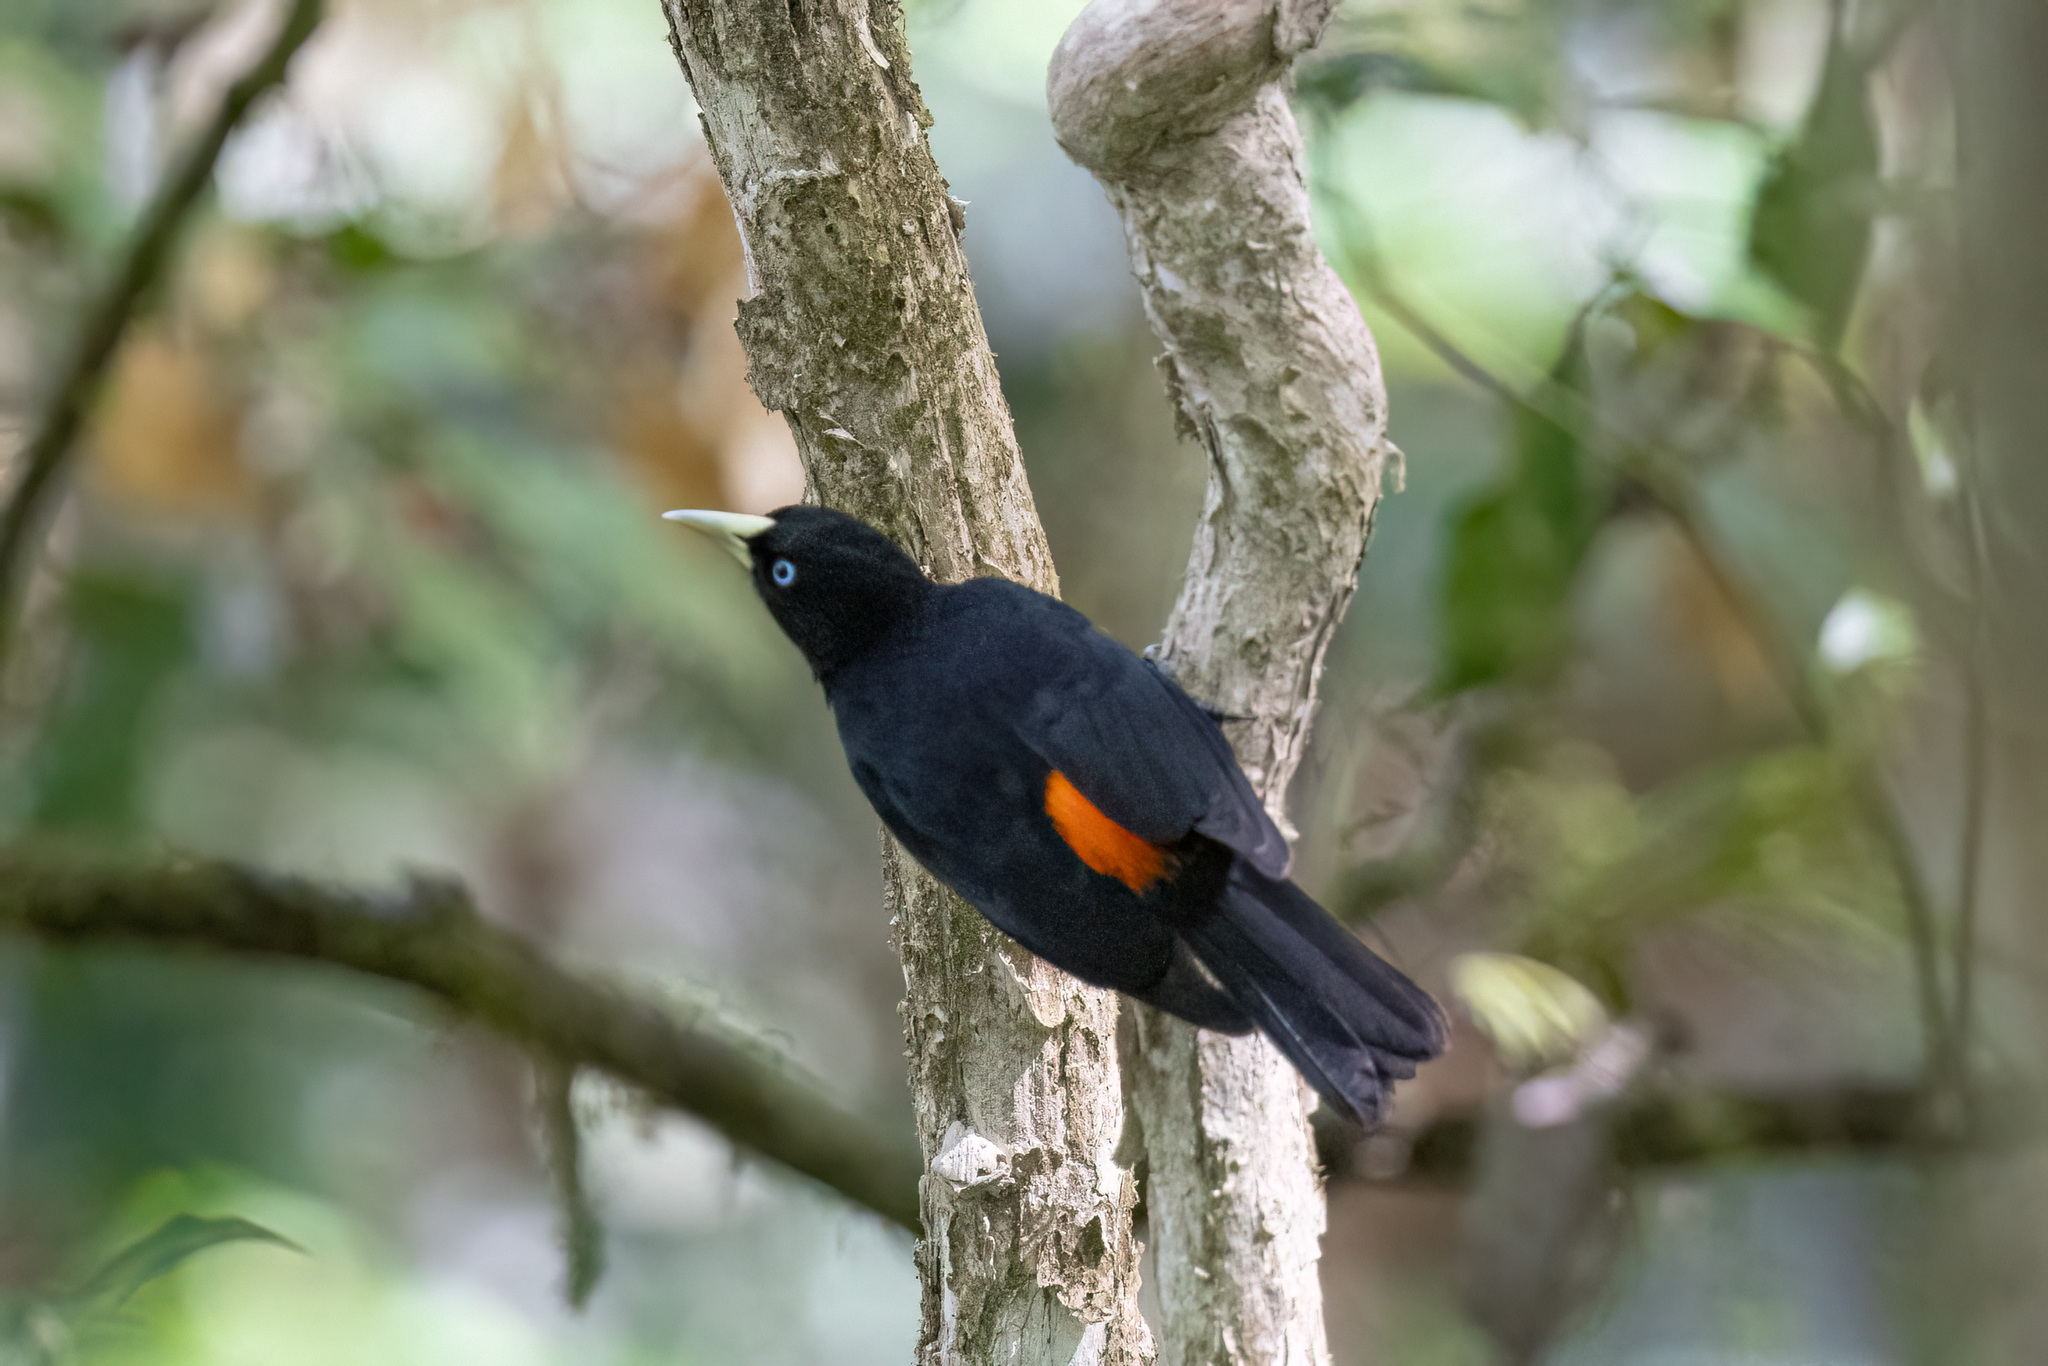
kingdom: Animalia
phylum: Chordata
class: Aves
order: Passeriformes
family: Icteridae
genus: Cacicus
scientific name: Cacicus uropygialis
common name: Scarlet-rumped cacique
